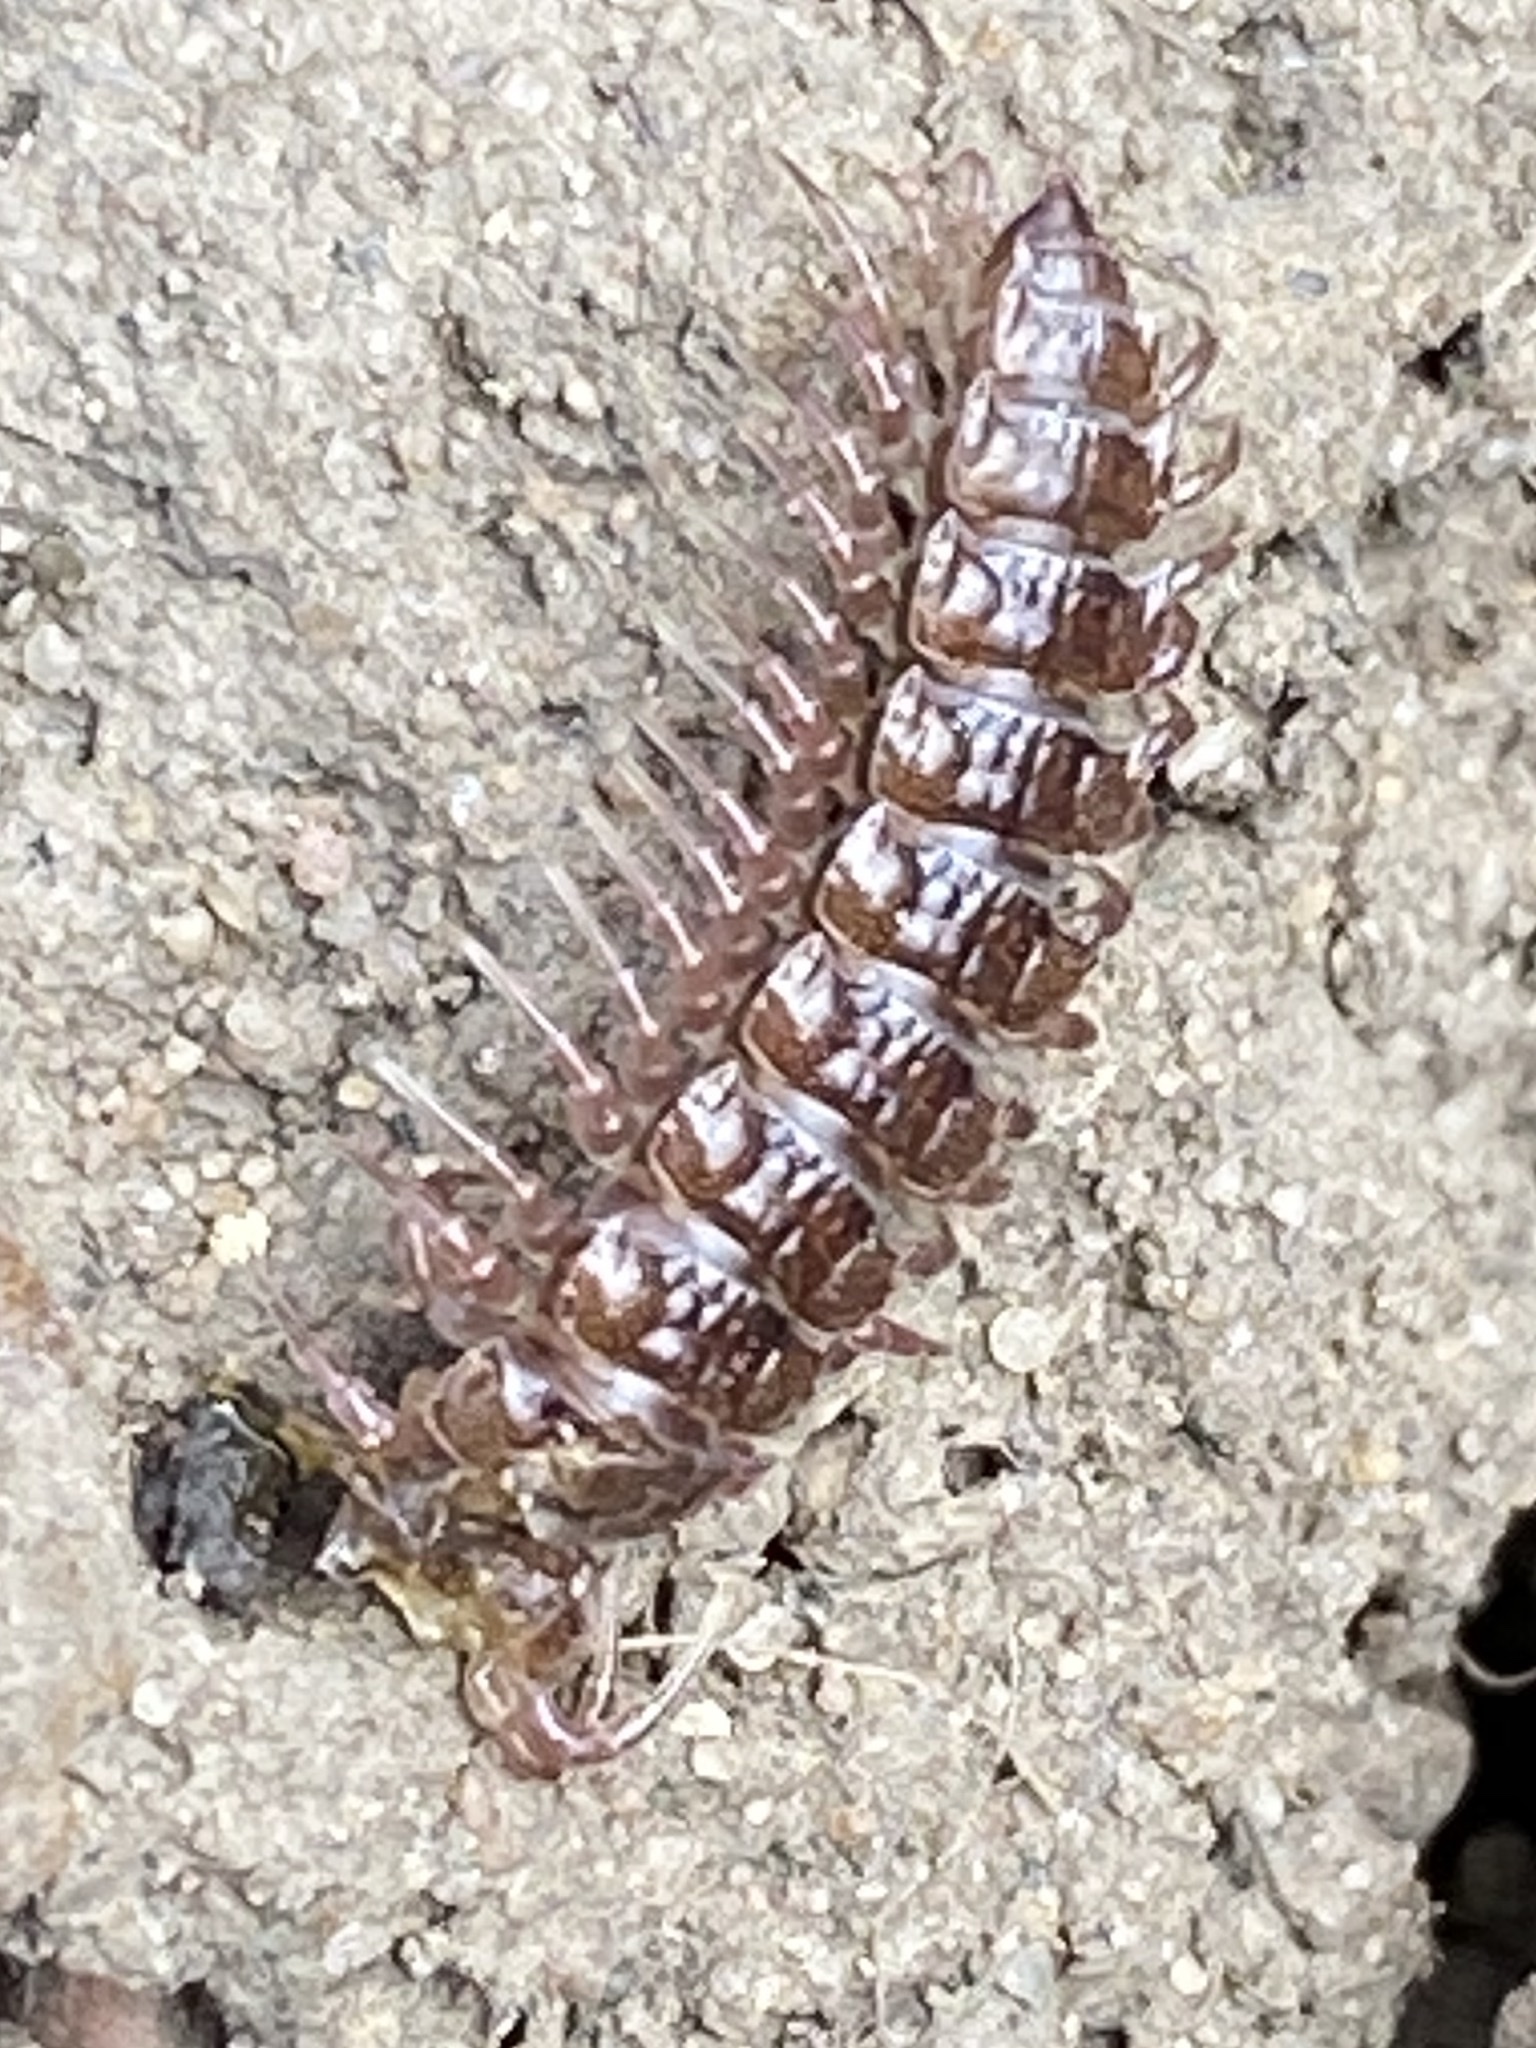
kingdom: Animalia
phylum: Arthropoda
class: Diplopoda
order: Polydesmida
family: Polydesmidae
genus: Polydesmus
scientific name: Polydesmus
